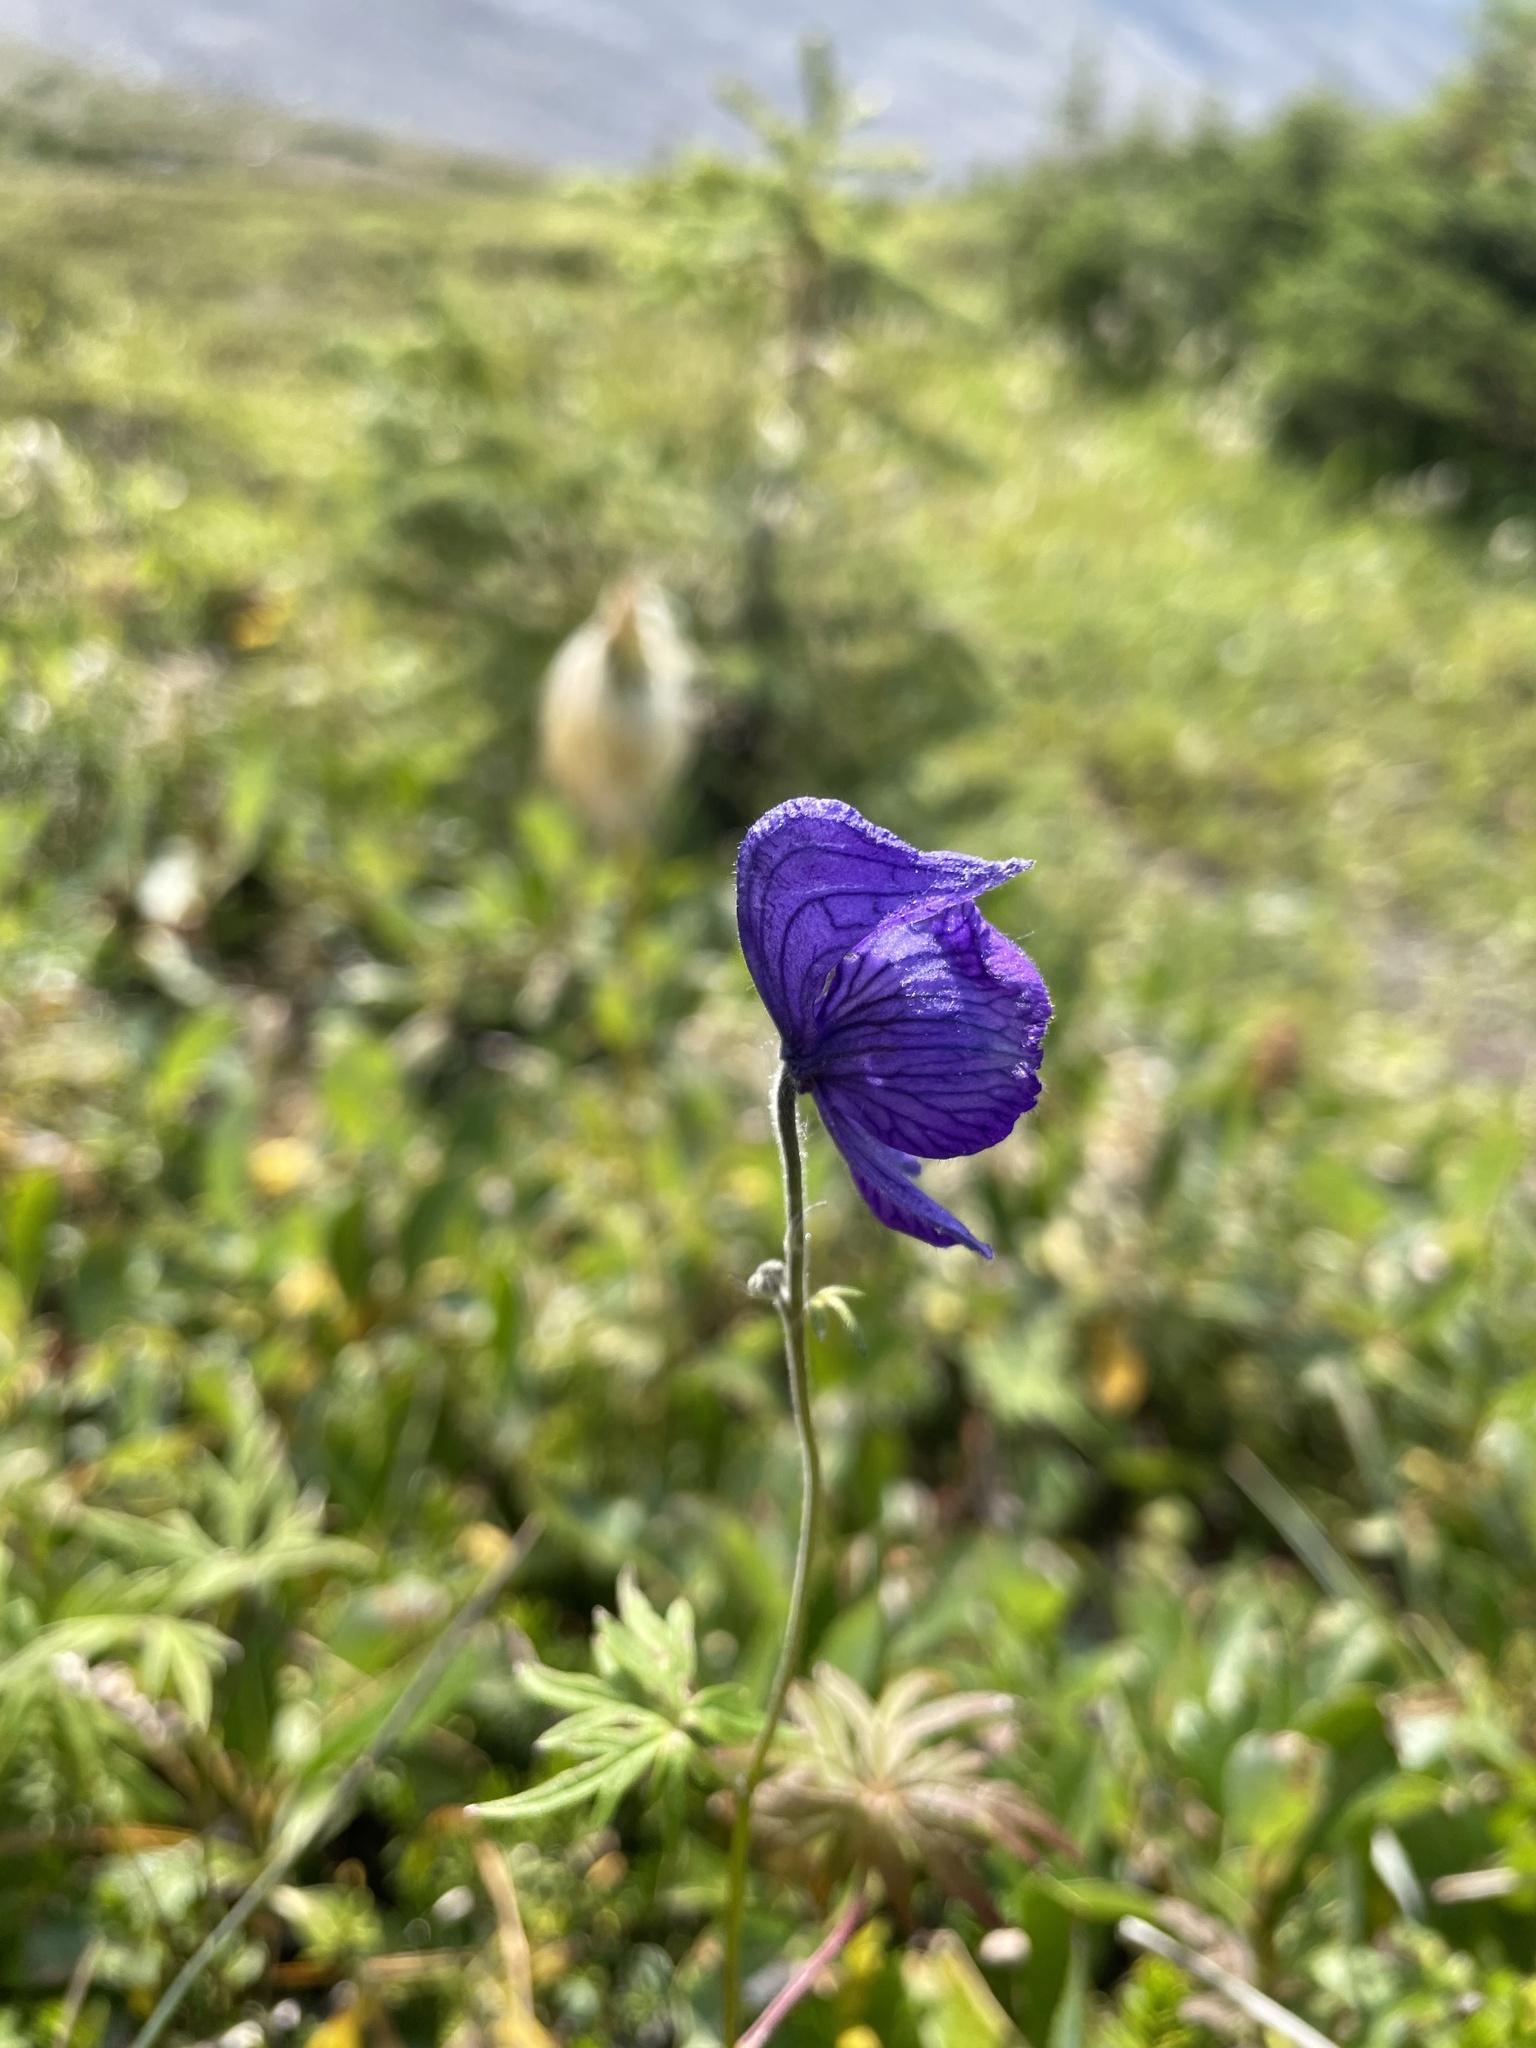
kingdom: Plantae
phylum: Tracheophyta
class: Magnoliopsida
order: Ranunculales
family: Ranunculaceae
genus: Aconitum
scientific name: Aconitum delphiniifolium
